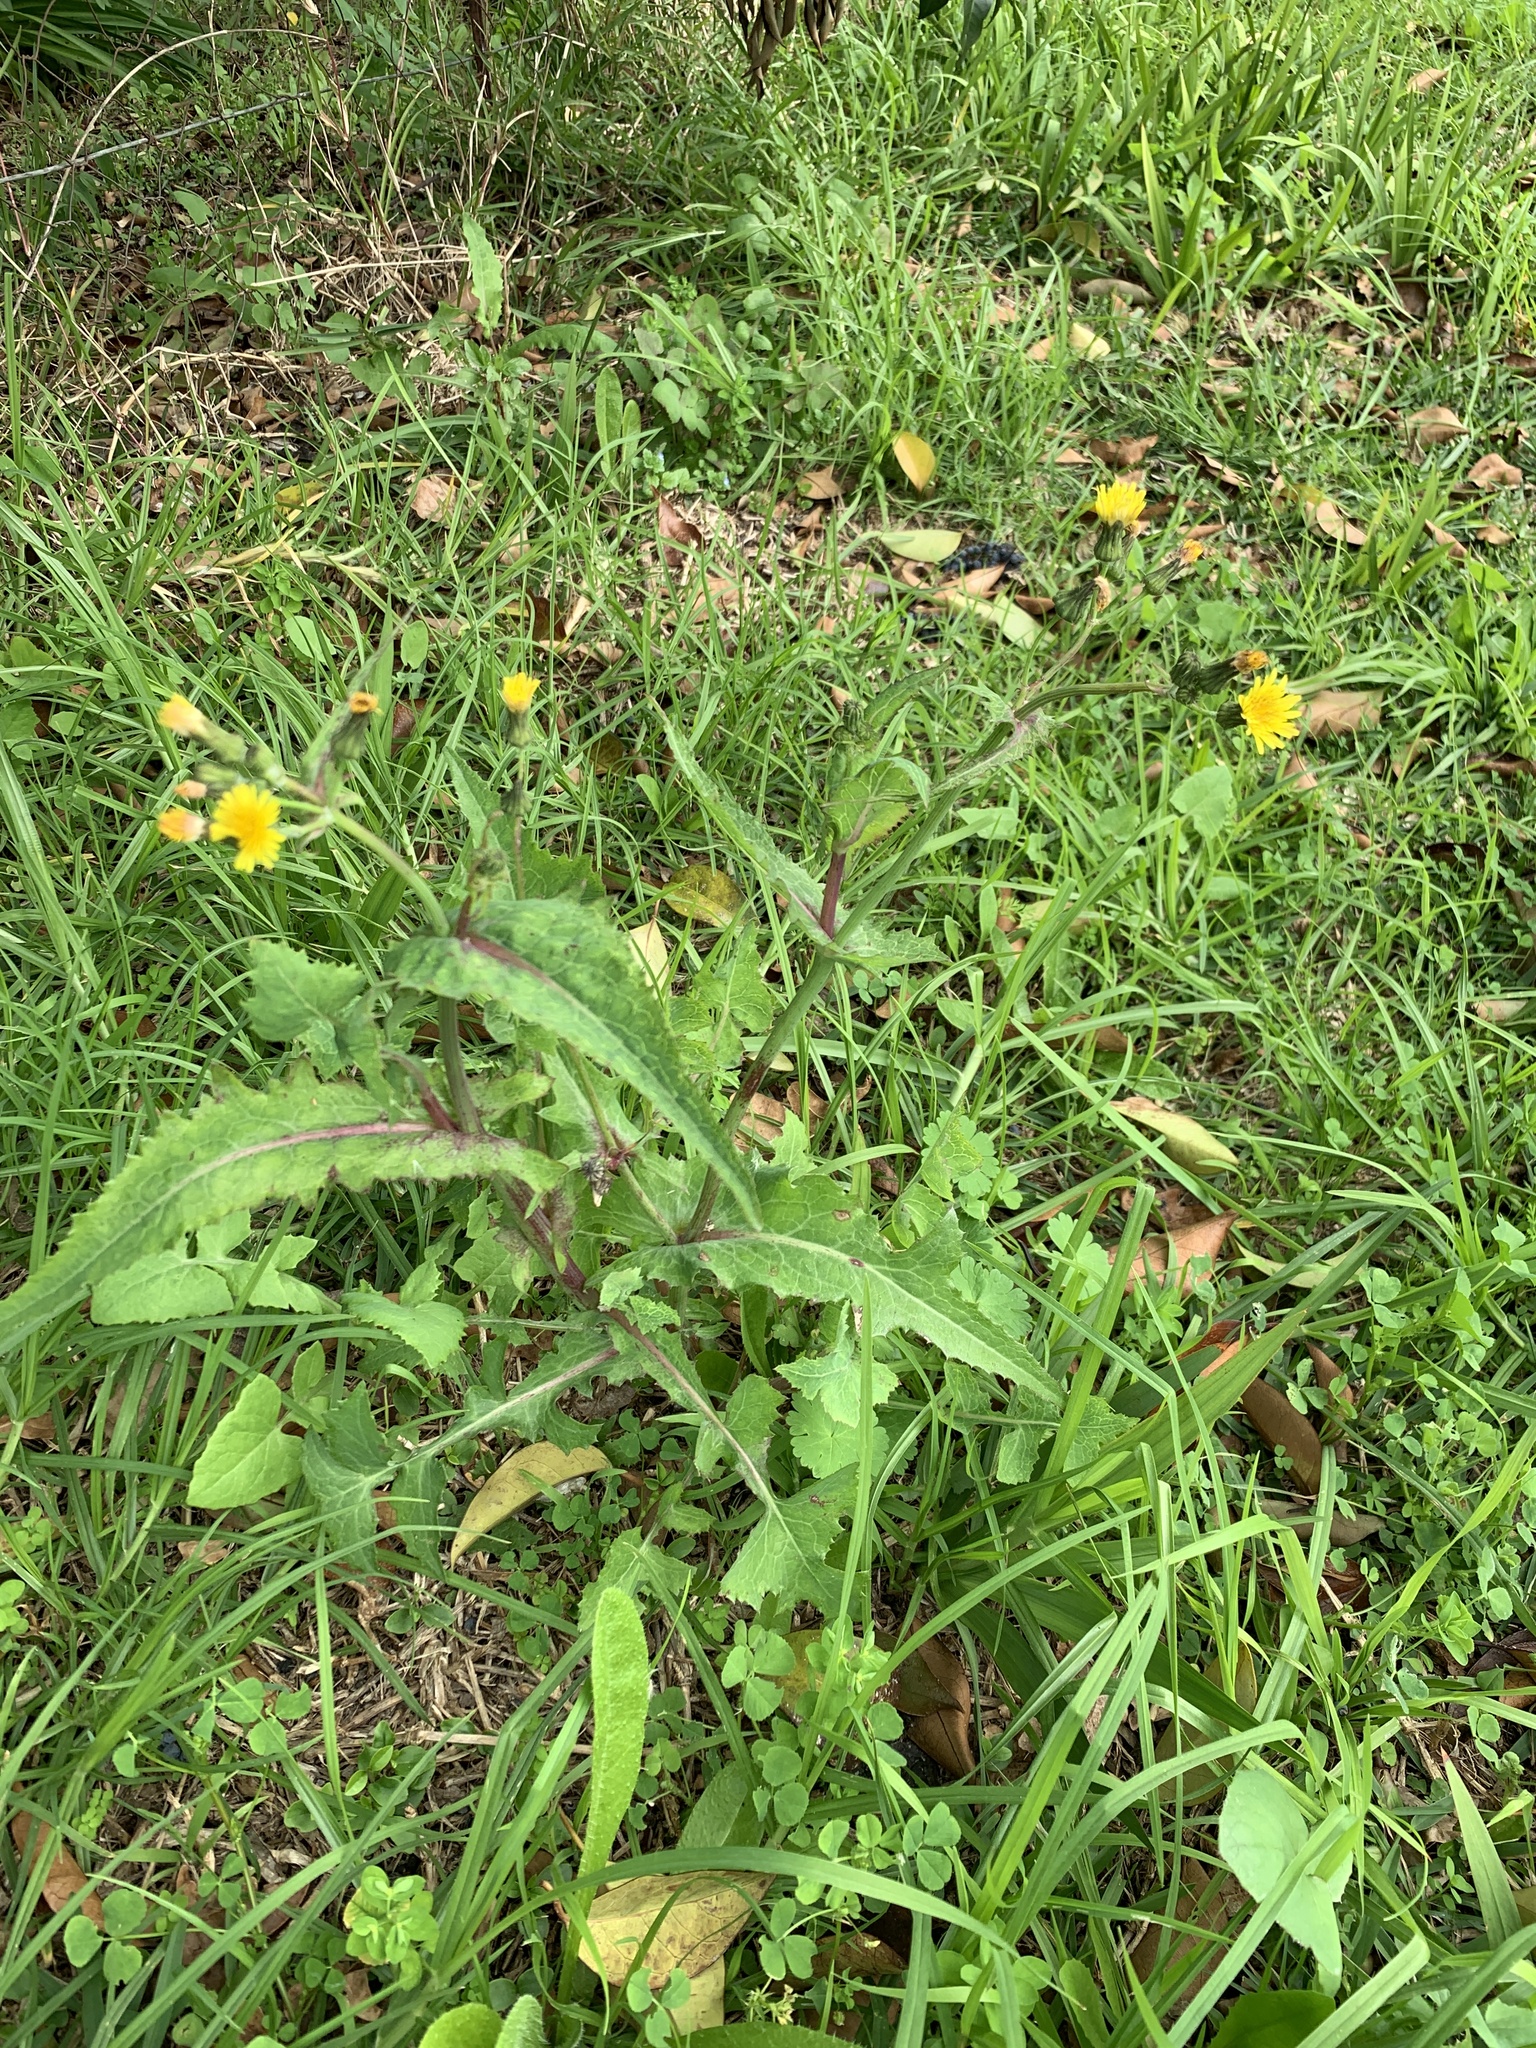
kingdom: Plantae
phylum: Tracheophyta
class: Magnoliopsida
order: Asterales
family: Asteraceae
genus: Sonchus
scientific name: Sonchus oleraceus
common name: Common sowthistle
